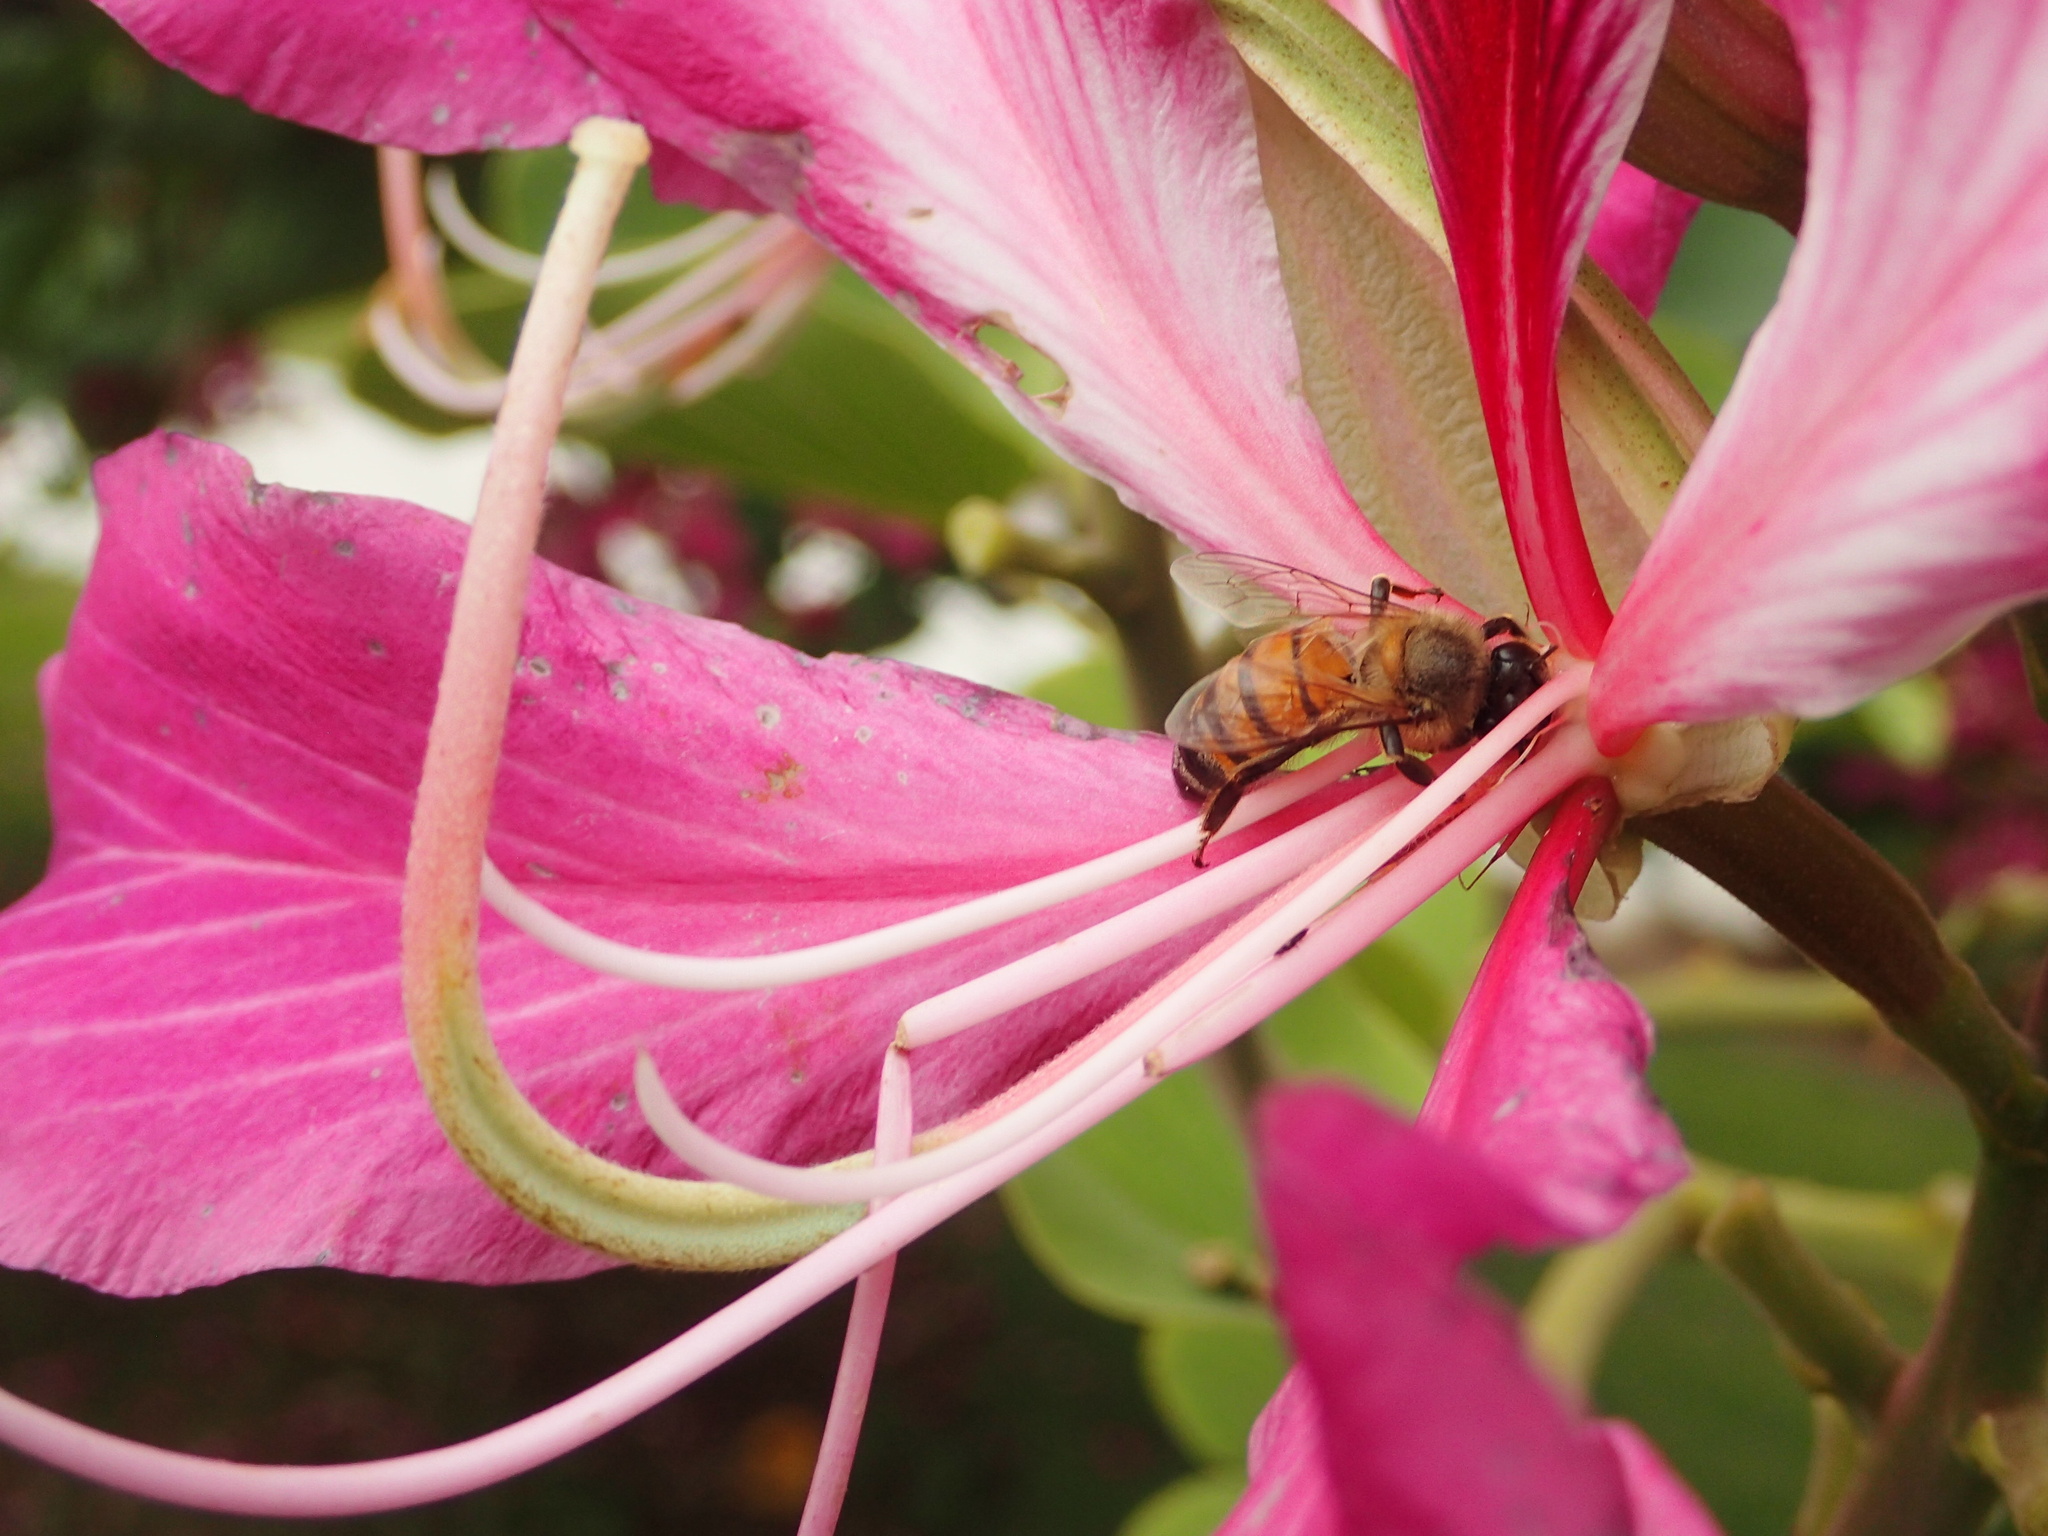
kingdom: Animalia
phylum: Arthropoda
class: Insecta
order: Hymenoptera
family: Apidae
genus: Apis
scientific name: Apis mellifera
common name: Honey bee
